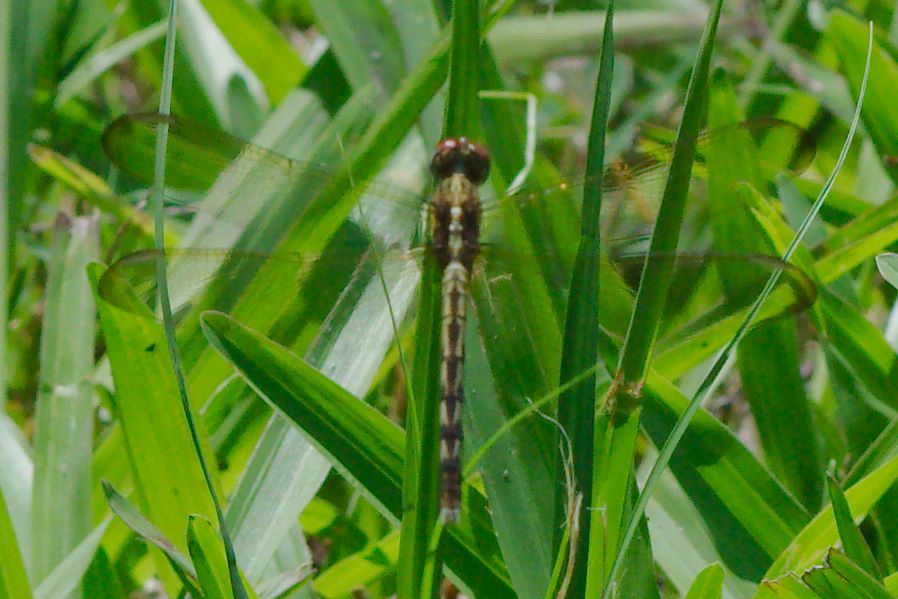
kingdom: Animalia
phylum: Arthropoda
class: Insecta
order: Odonata
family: Libellulidae
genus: Erythrodiplax
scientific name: Erythrodiplax umbrata
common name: Band-winged dragonlet
